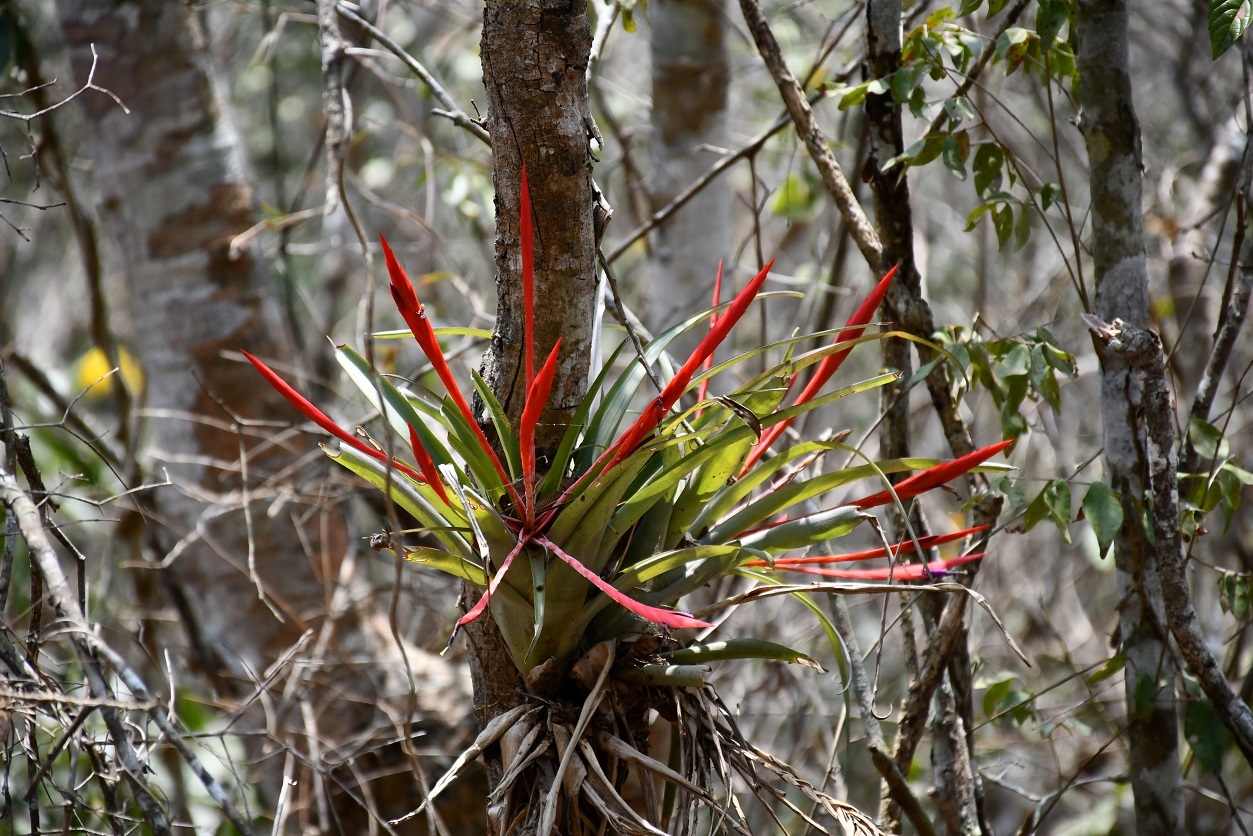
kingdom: Plantae
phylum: Tracheophyta
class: Liliopsida
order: Poales
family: Bromeliaceae
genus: Tillandsia
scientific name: Tillandsia flabellata
